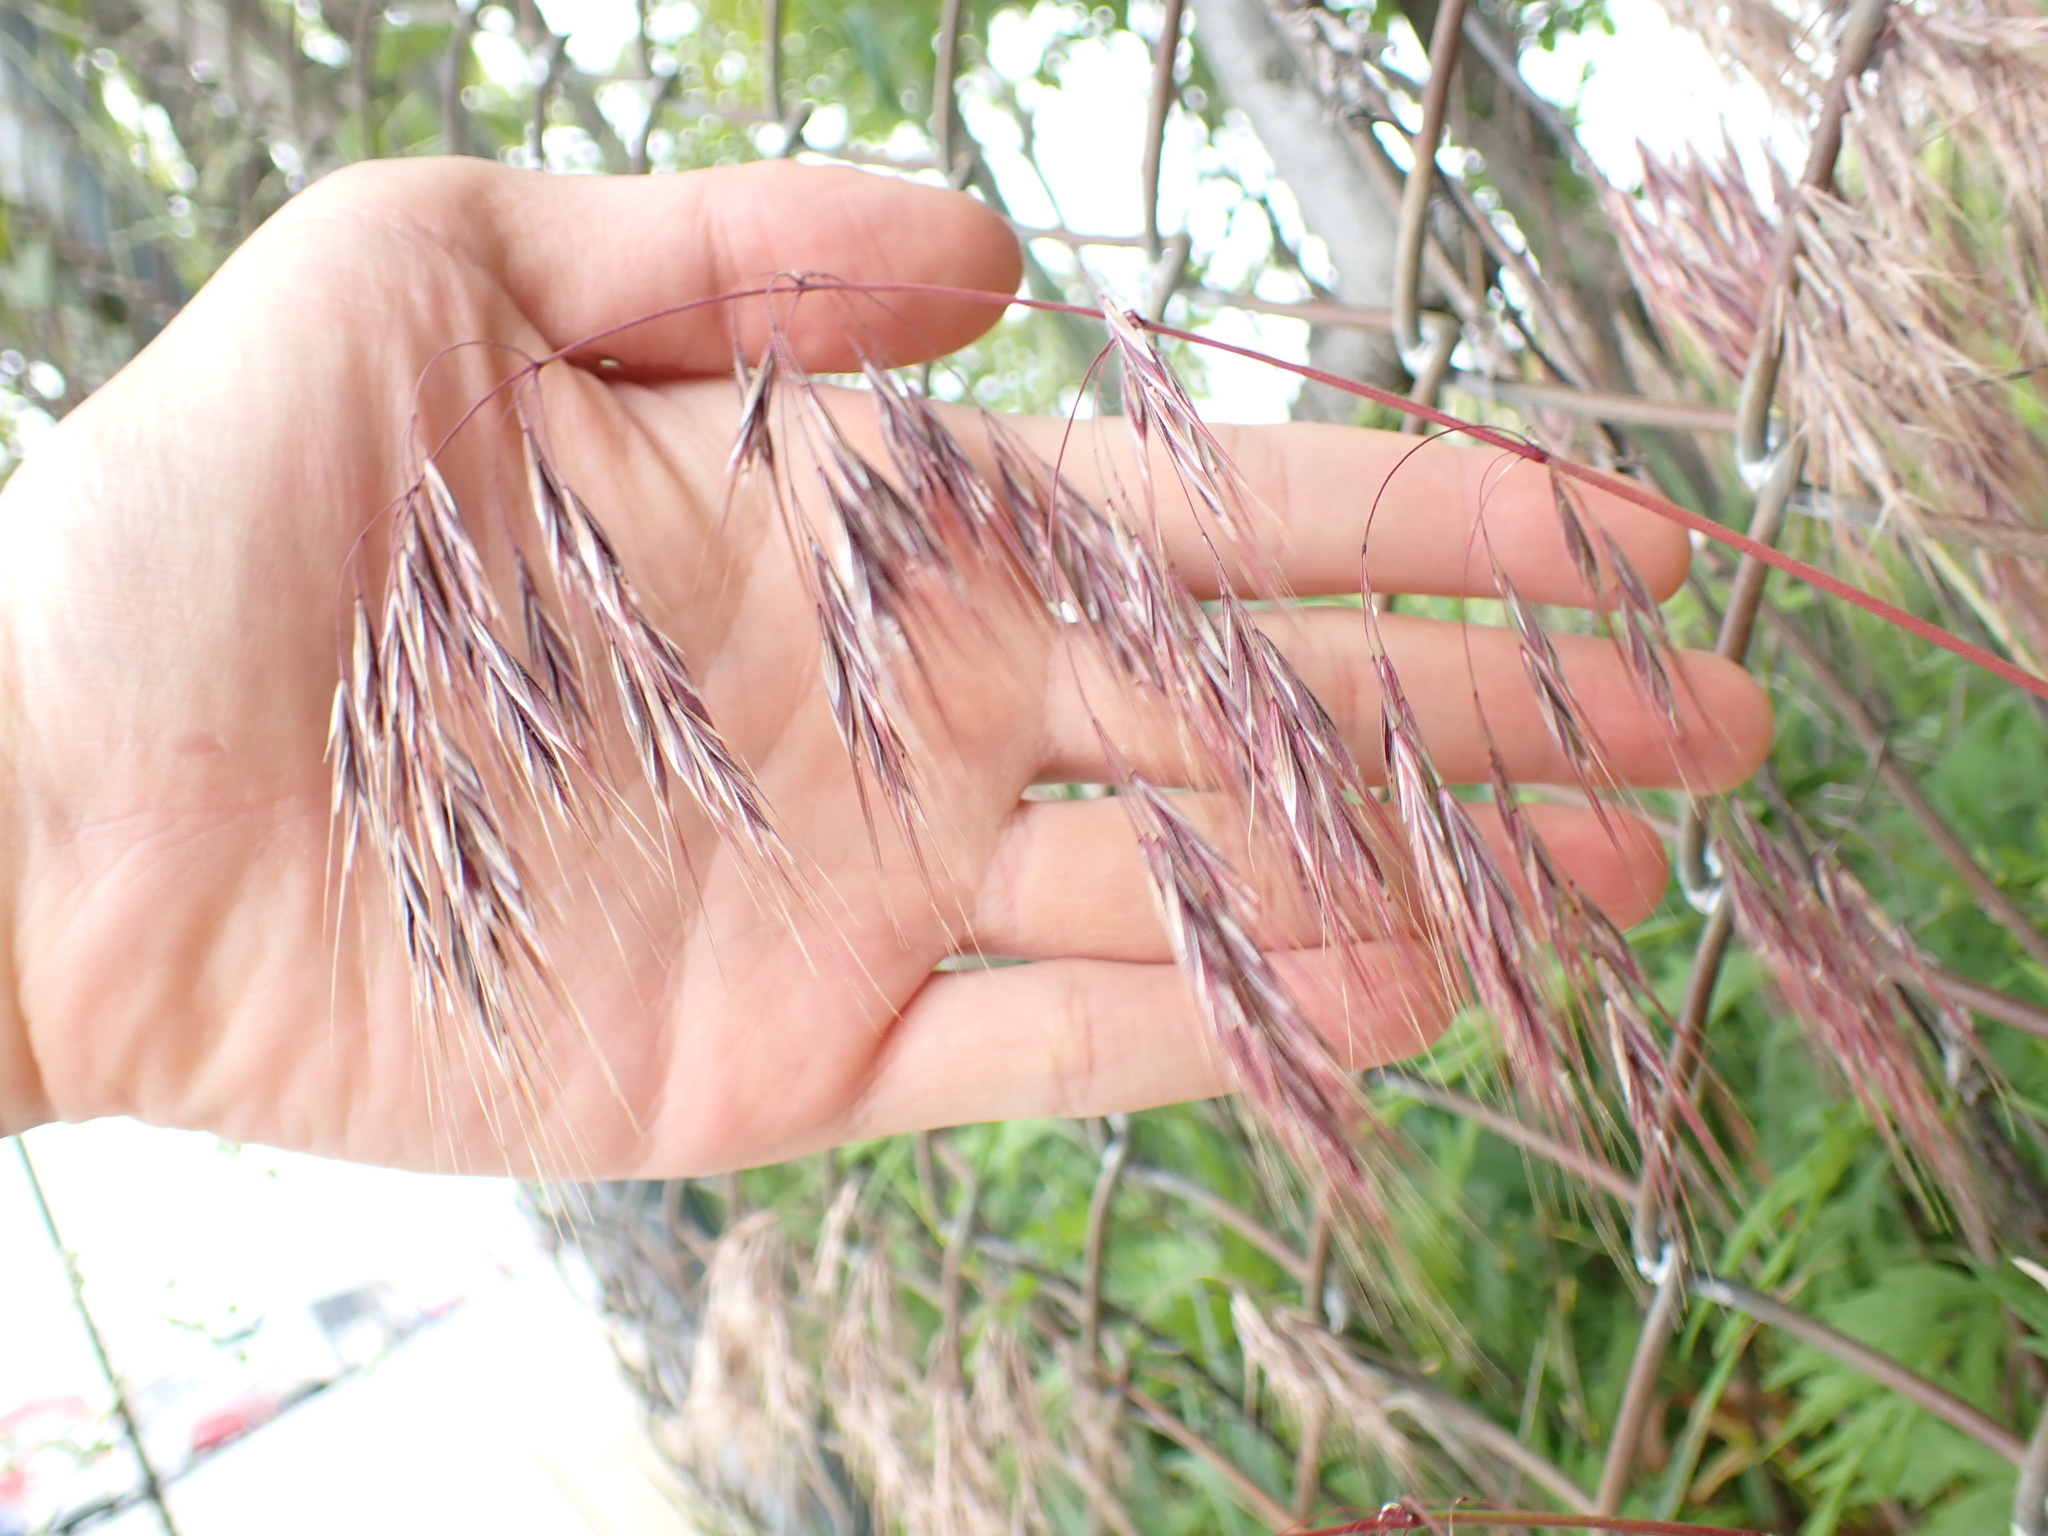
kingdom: Plantae
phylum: Tracheophyta
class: Liliopsida
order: Poales
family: Poaceae
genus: Bromus
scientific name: Bromus tectorum
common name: Cheatgrass
